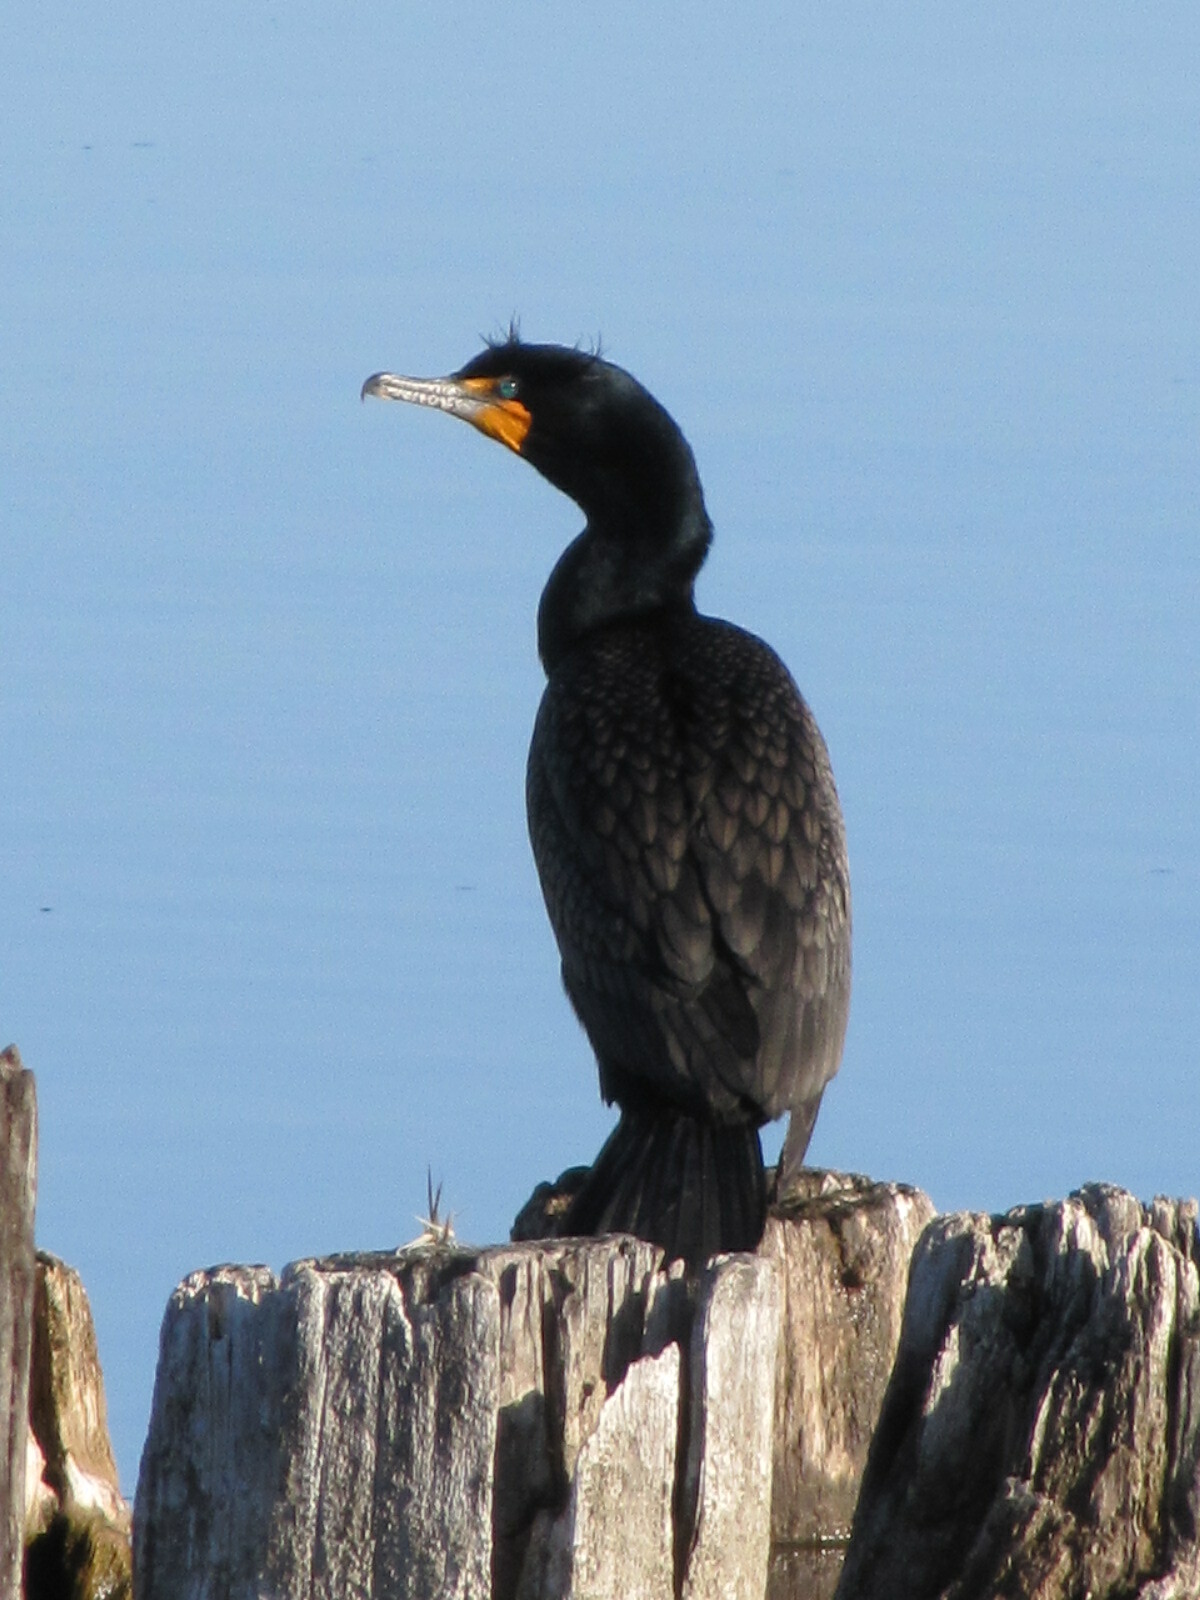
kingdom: Animalia
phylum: Chordata
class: Aves
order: Suliformes
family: Phalacrocoracidae
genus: Phalacrocorax
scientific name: Phalacrocorax auritus
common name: Double-crested cormorant
